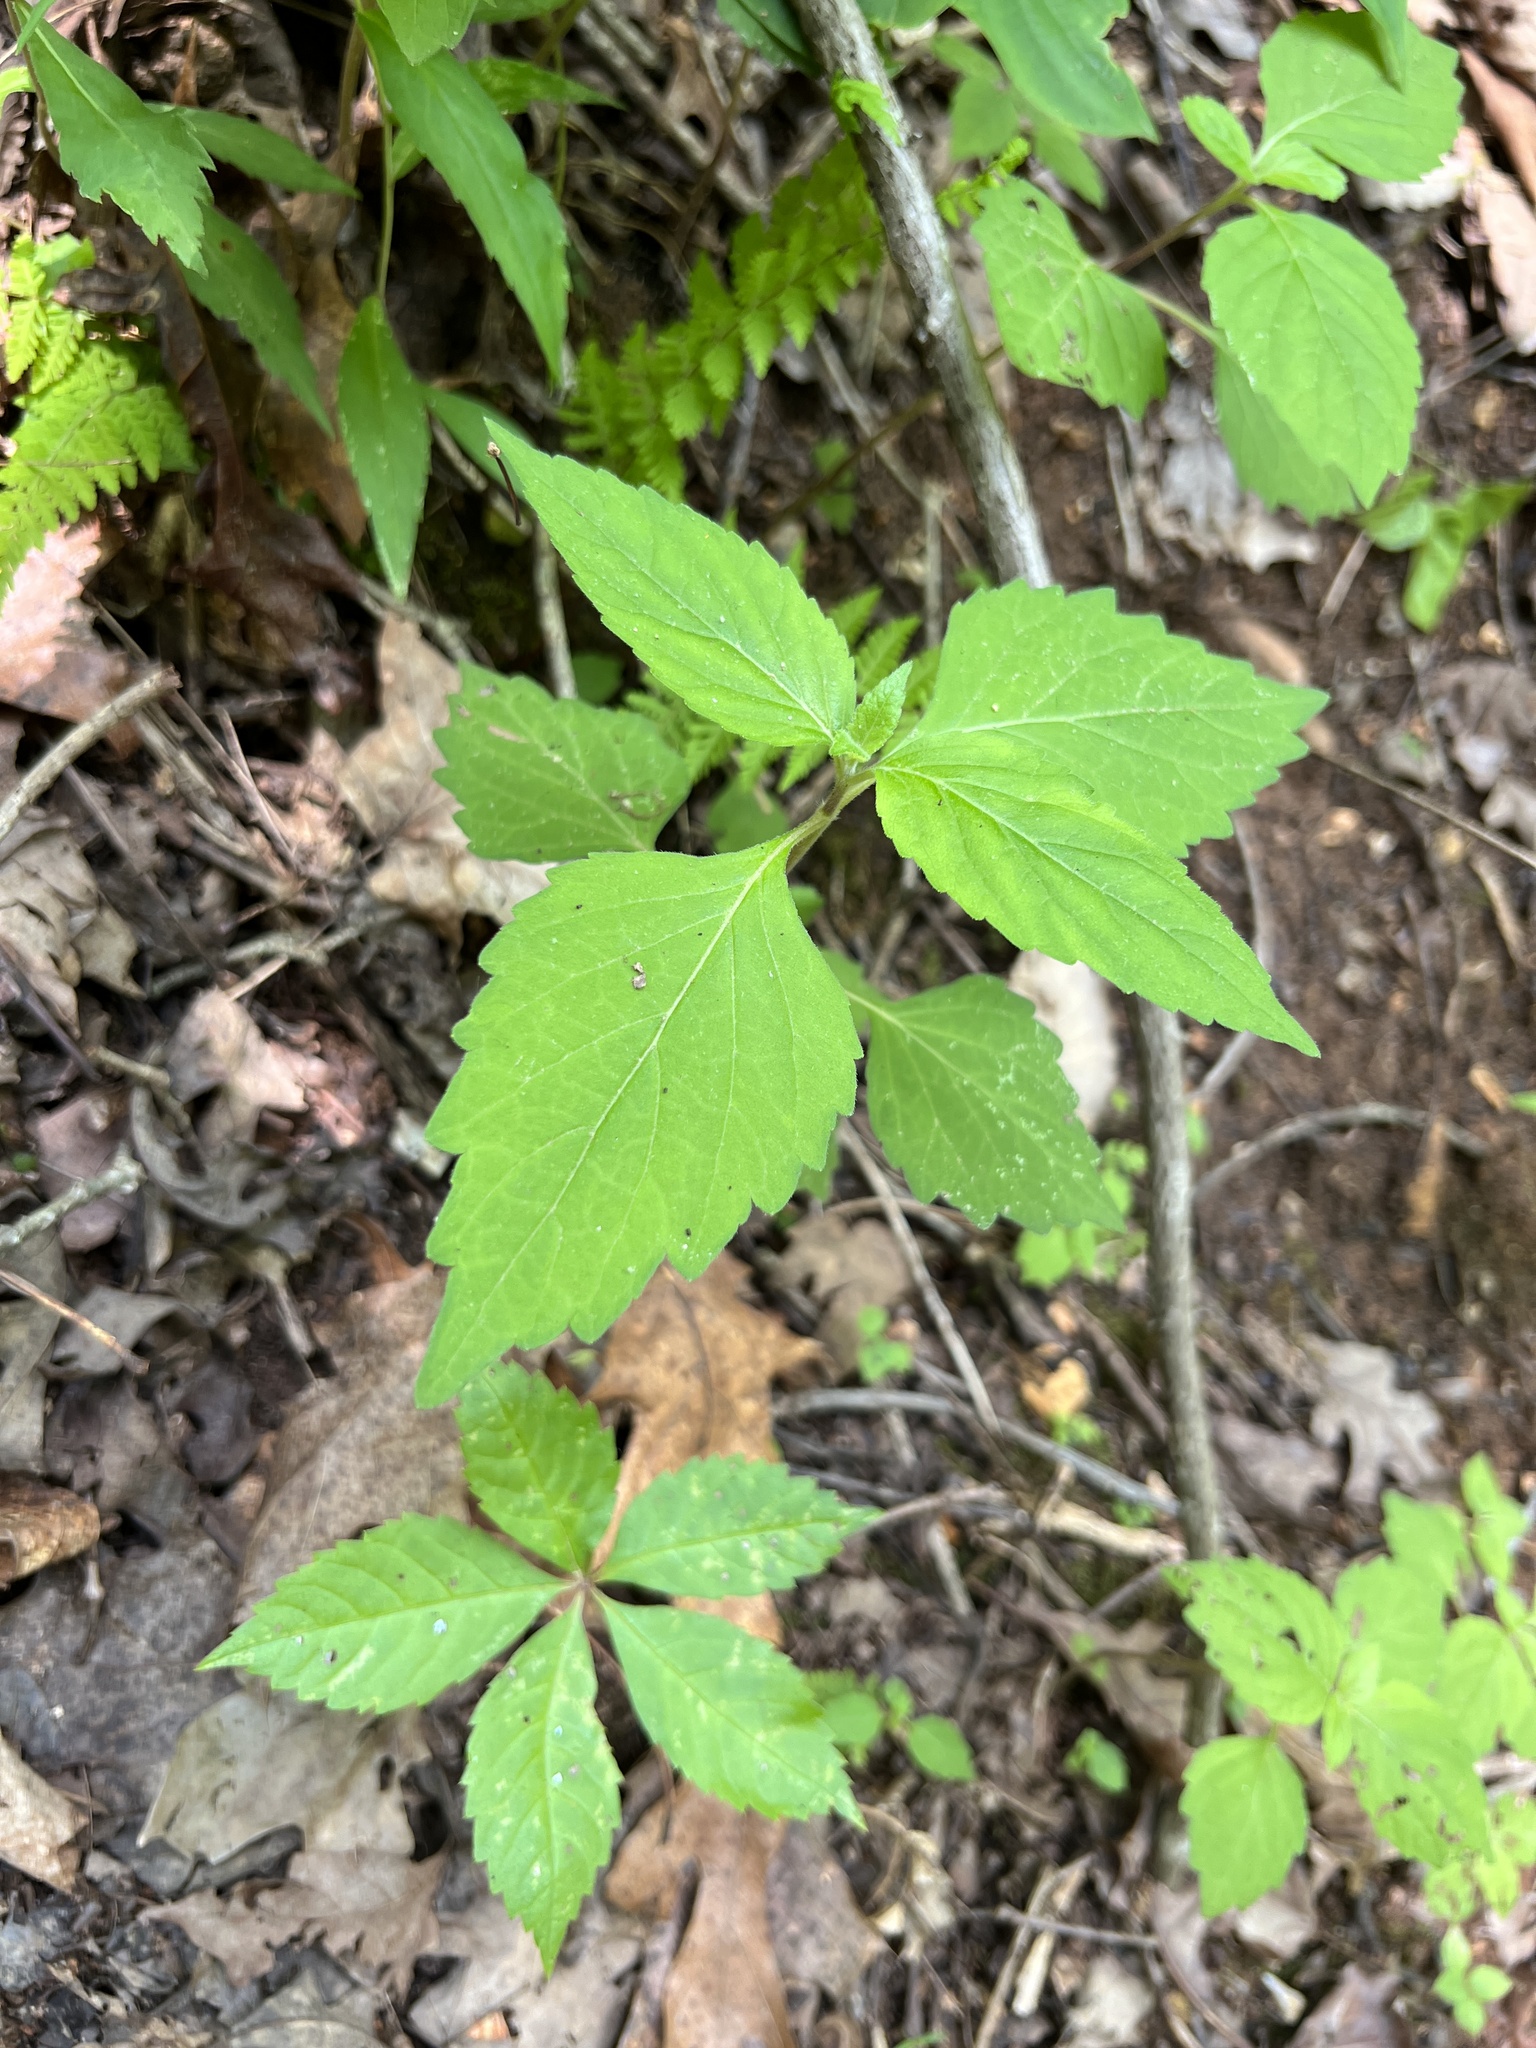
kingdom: Plantae
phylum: Tracheophyta
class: Magnoliopsida
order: Lamiales
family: Phrymaceae
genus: Phryma
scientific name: Phryma leptostachya
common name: American lopseed
